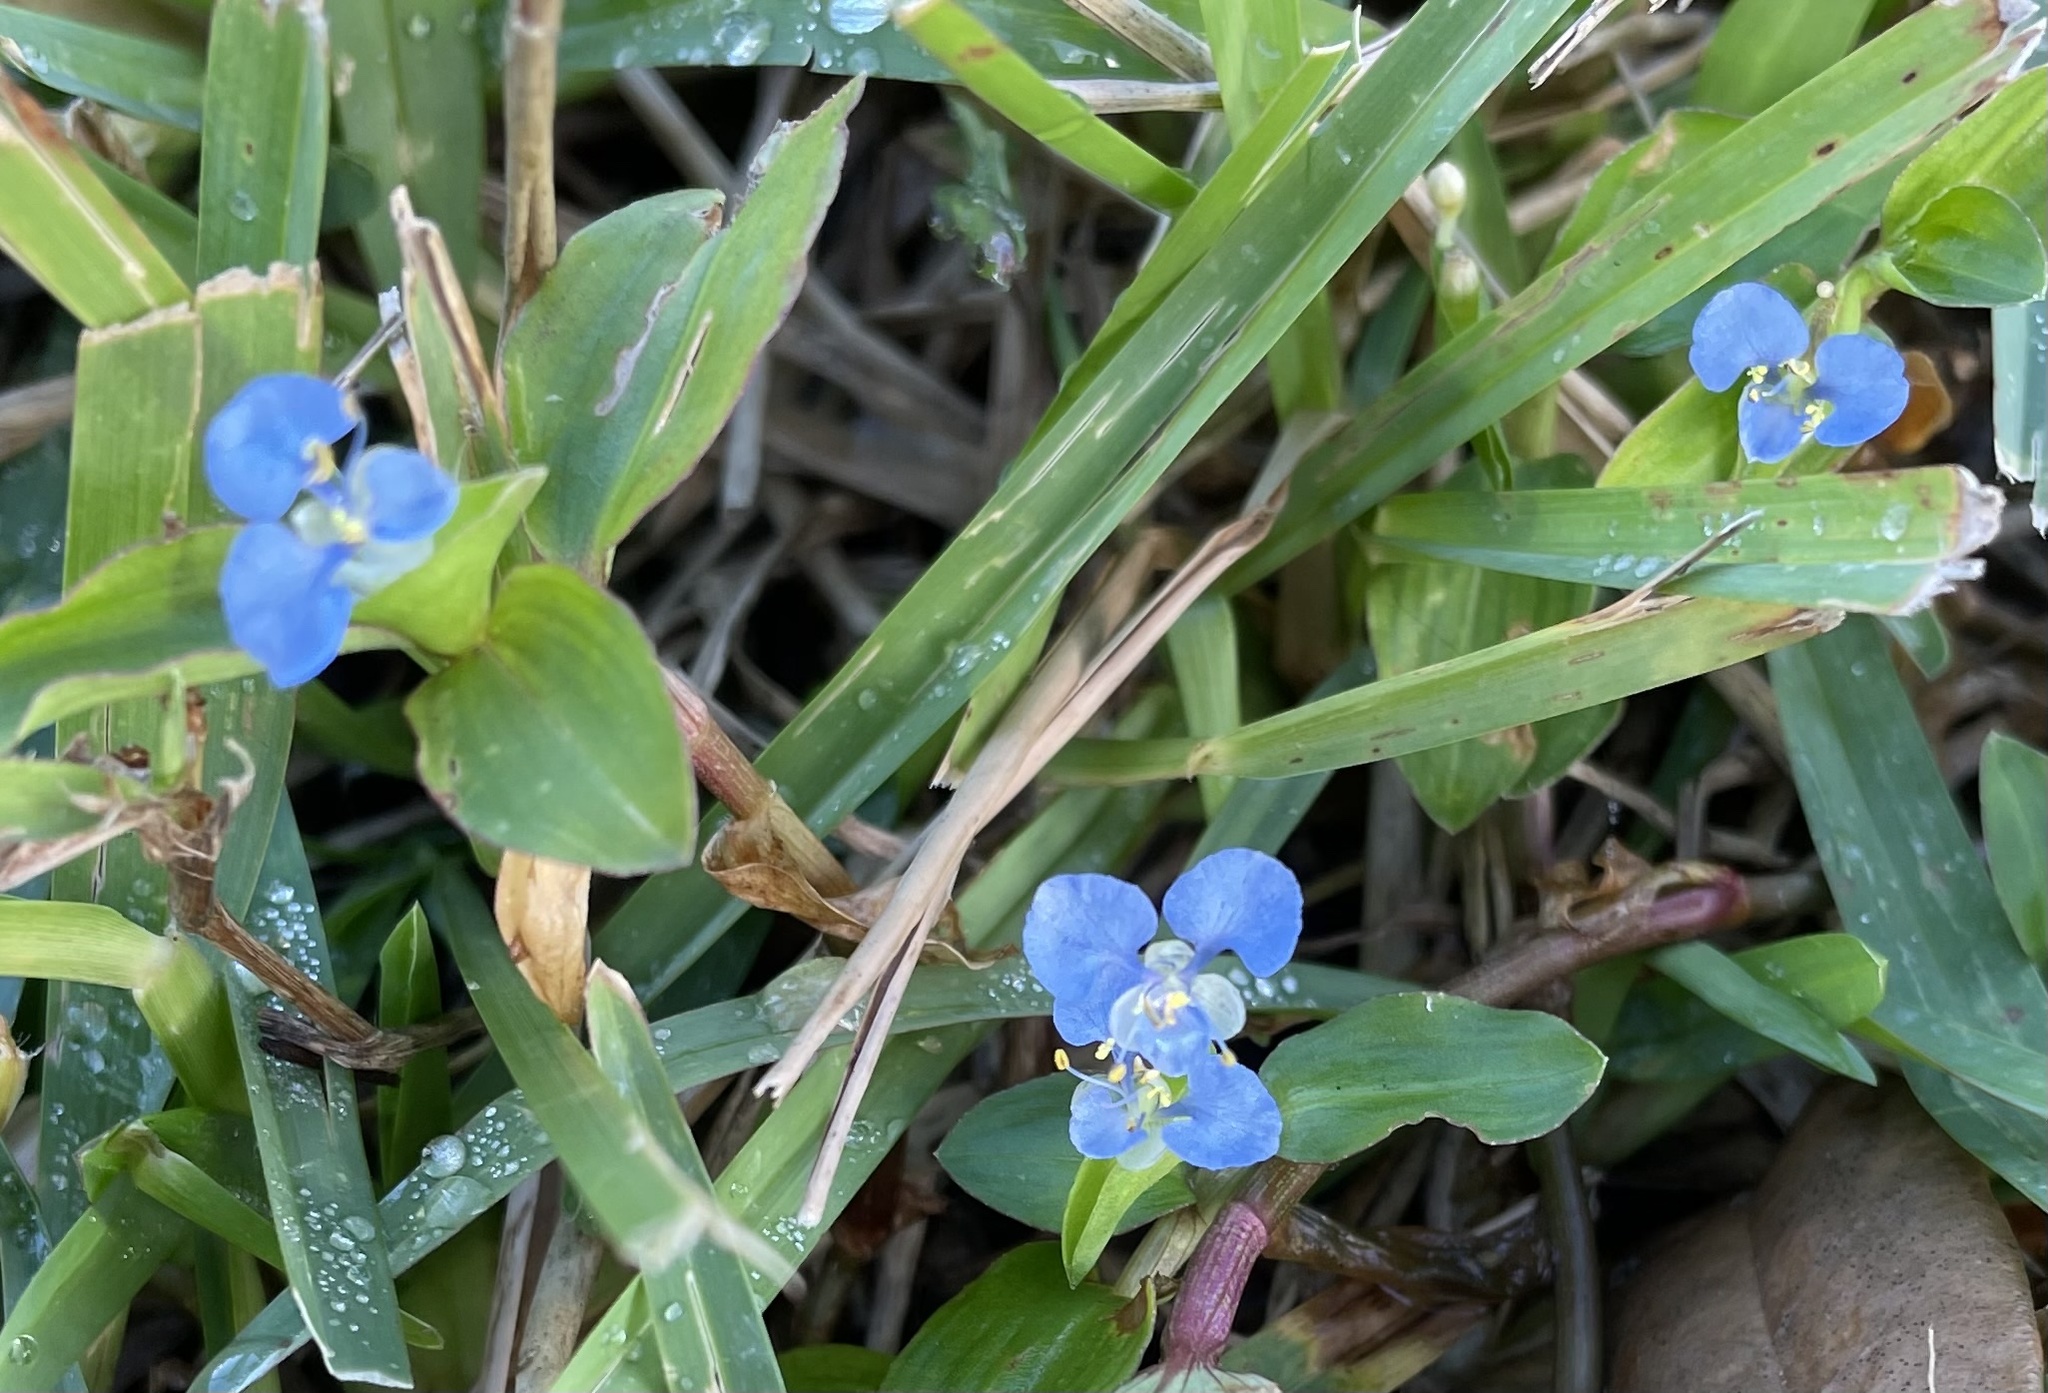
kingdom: Plantae
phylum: Tracheophyta
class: Liliopsida
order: Commelinales
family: Commelinaceae
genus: Commelina
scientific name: Commelina diffusa
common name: Climbing dayflower
